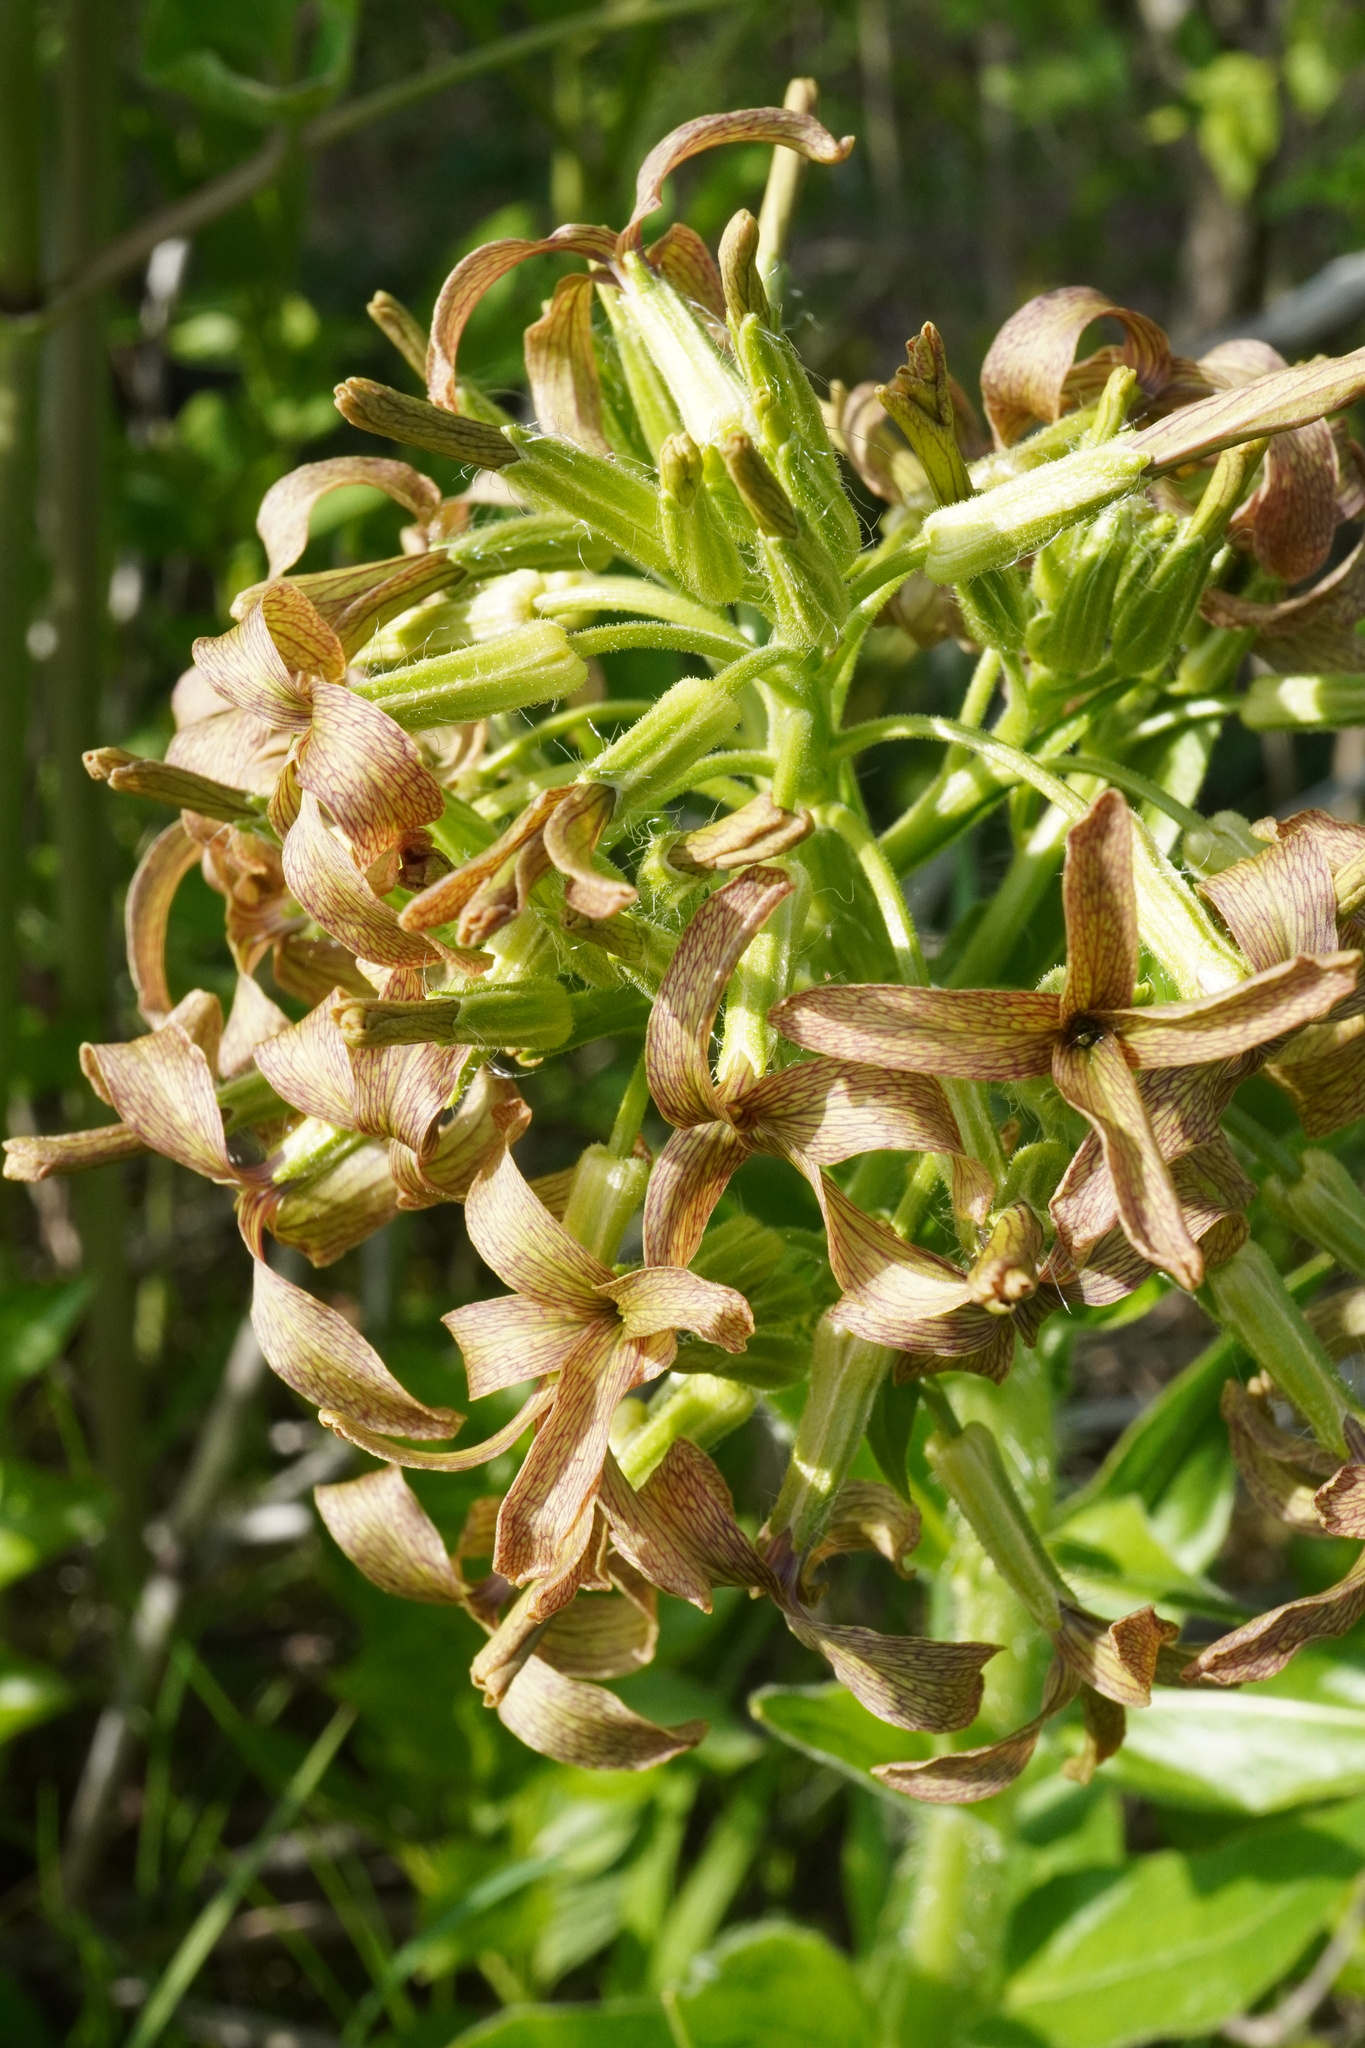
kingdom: Plantae
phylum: Tracheophyta
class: Magnoliopsida
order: Brassicales
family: Brassicaceae
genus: Hesperis
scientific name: Hesperis tristis
